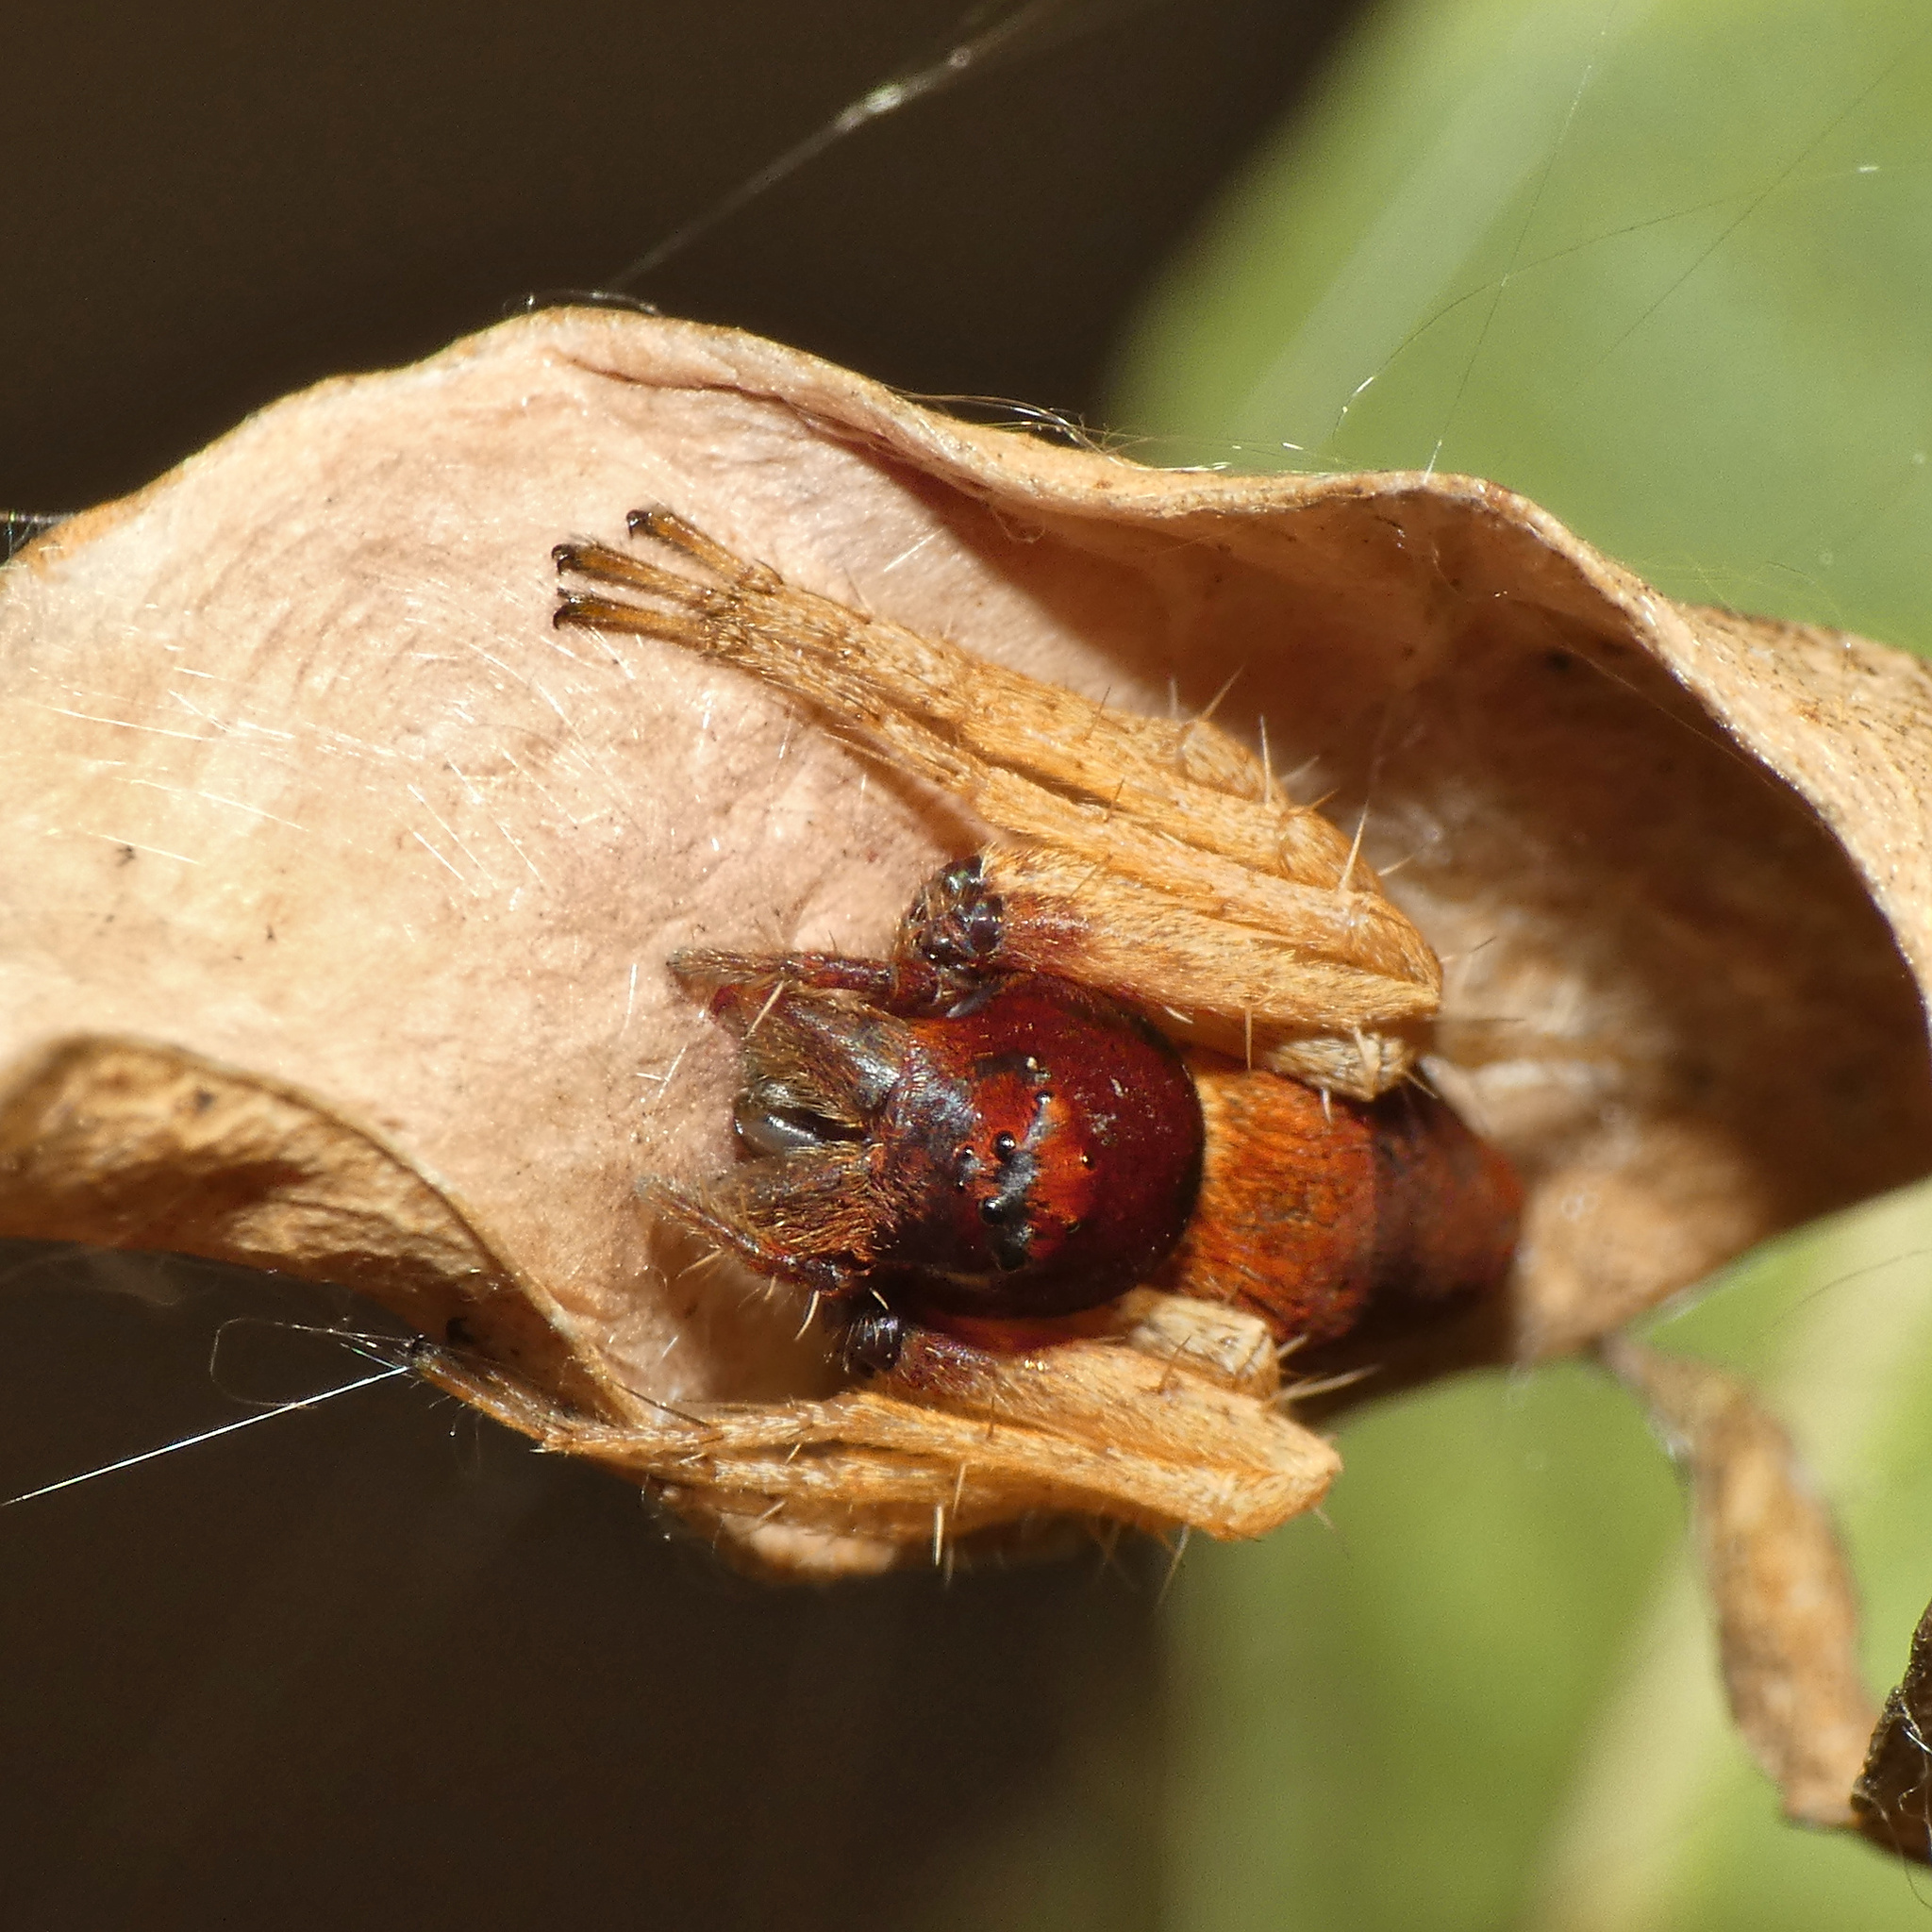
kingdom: Animalia
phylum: Arthropoda
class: Arachnida
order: Araneae
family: Oxyopidae
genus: Oxyopes
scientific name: Oxyopes flavipalpis
